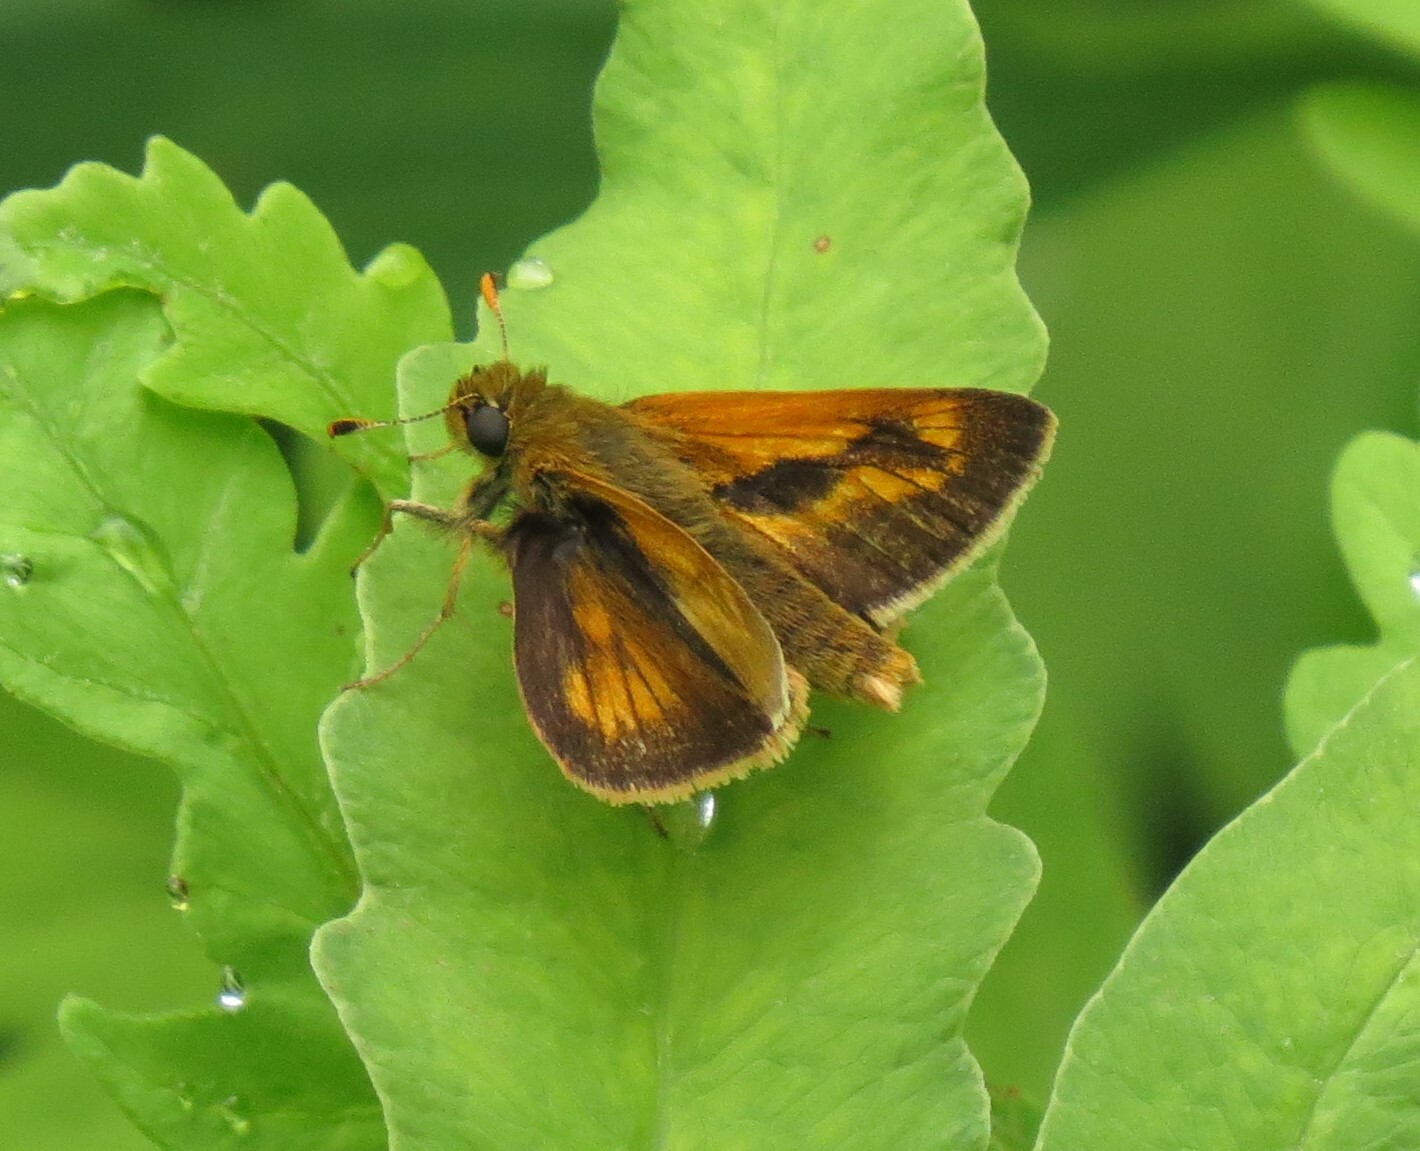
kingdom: Animalia
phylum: Arthropoda
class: Insecta
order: Lepidoptera
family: Hesperiidae
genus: Polites
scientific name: Polites mystic
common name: Long dash
